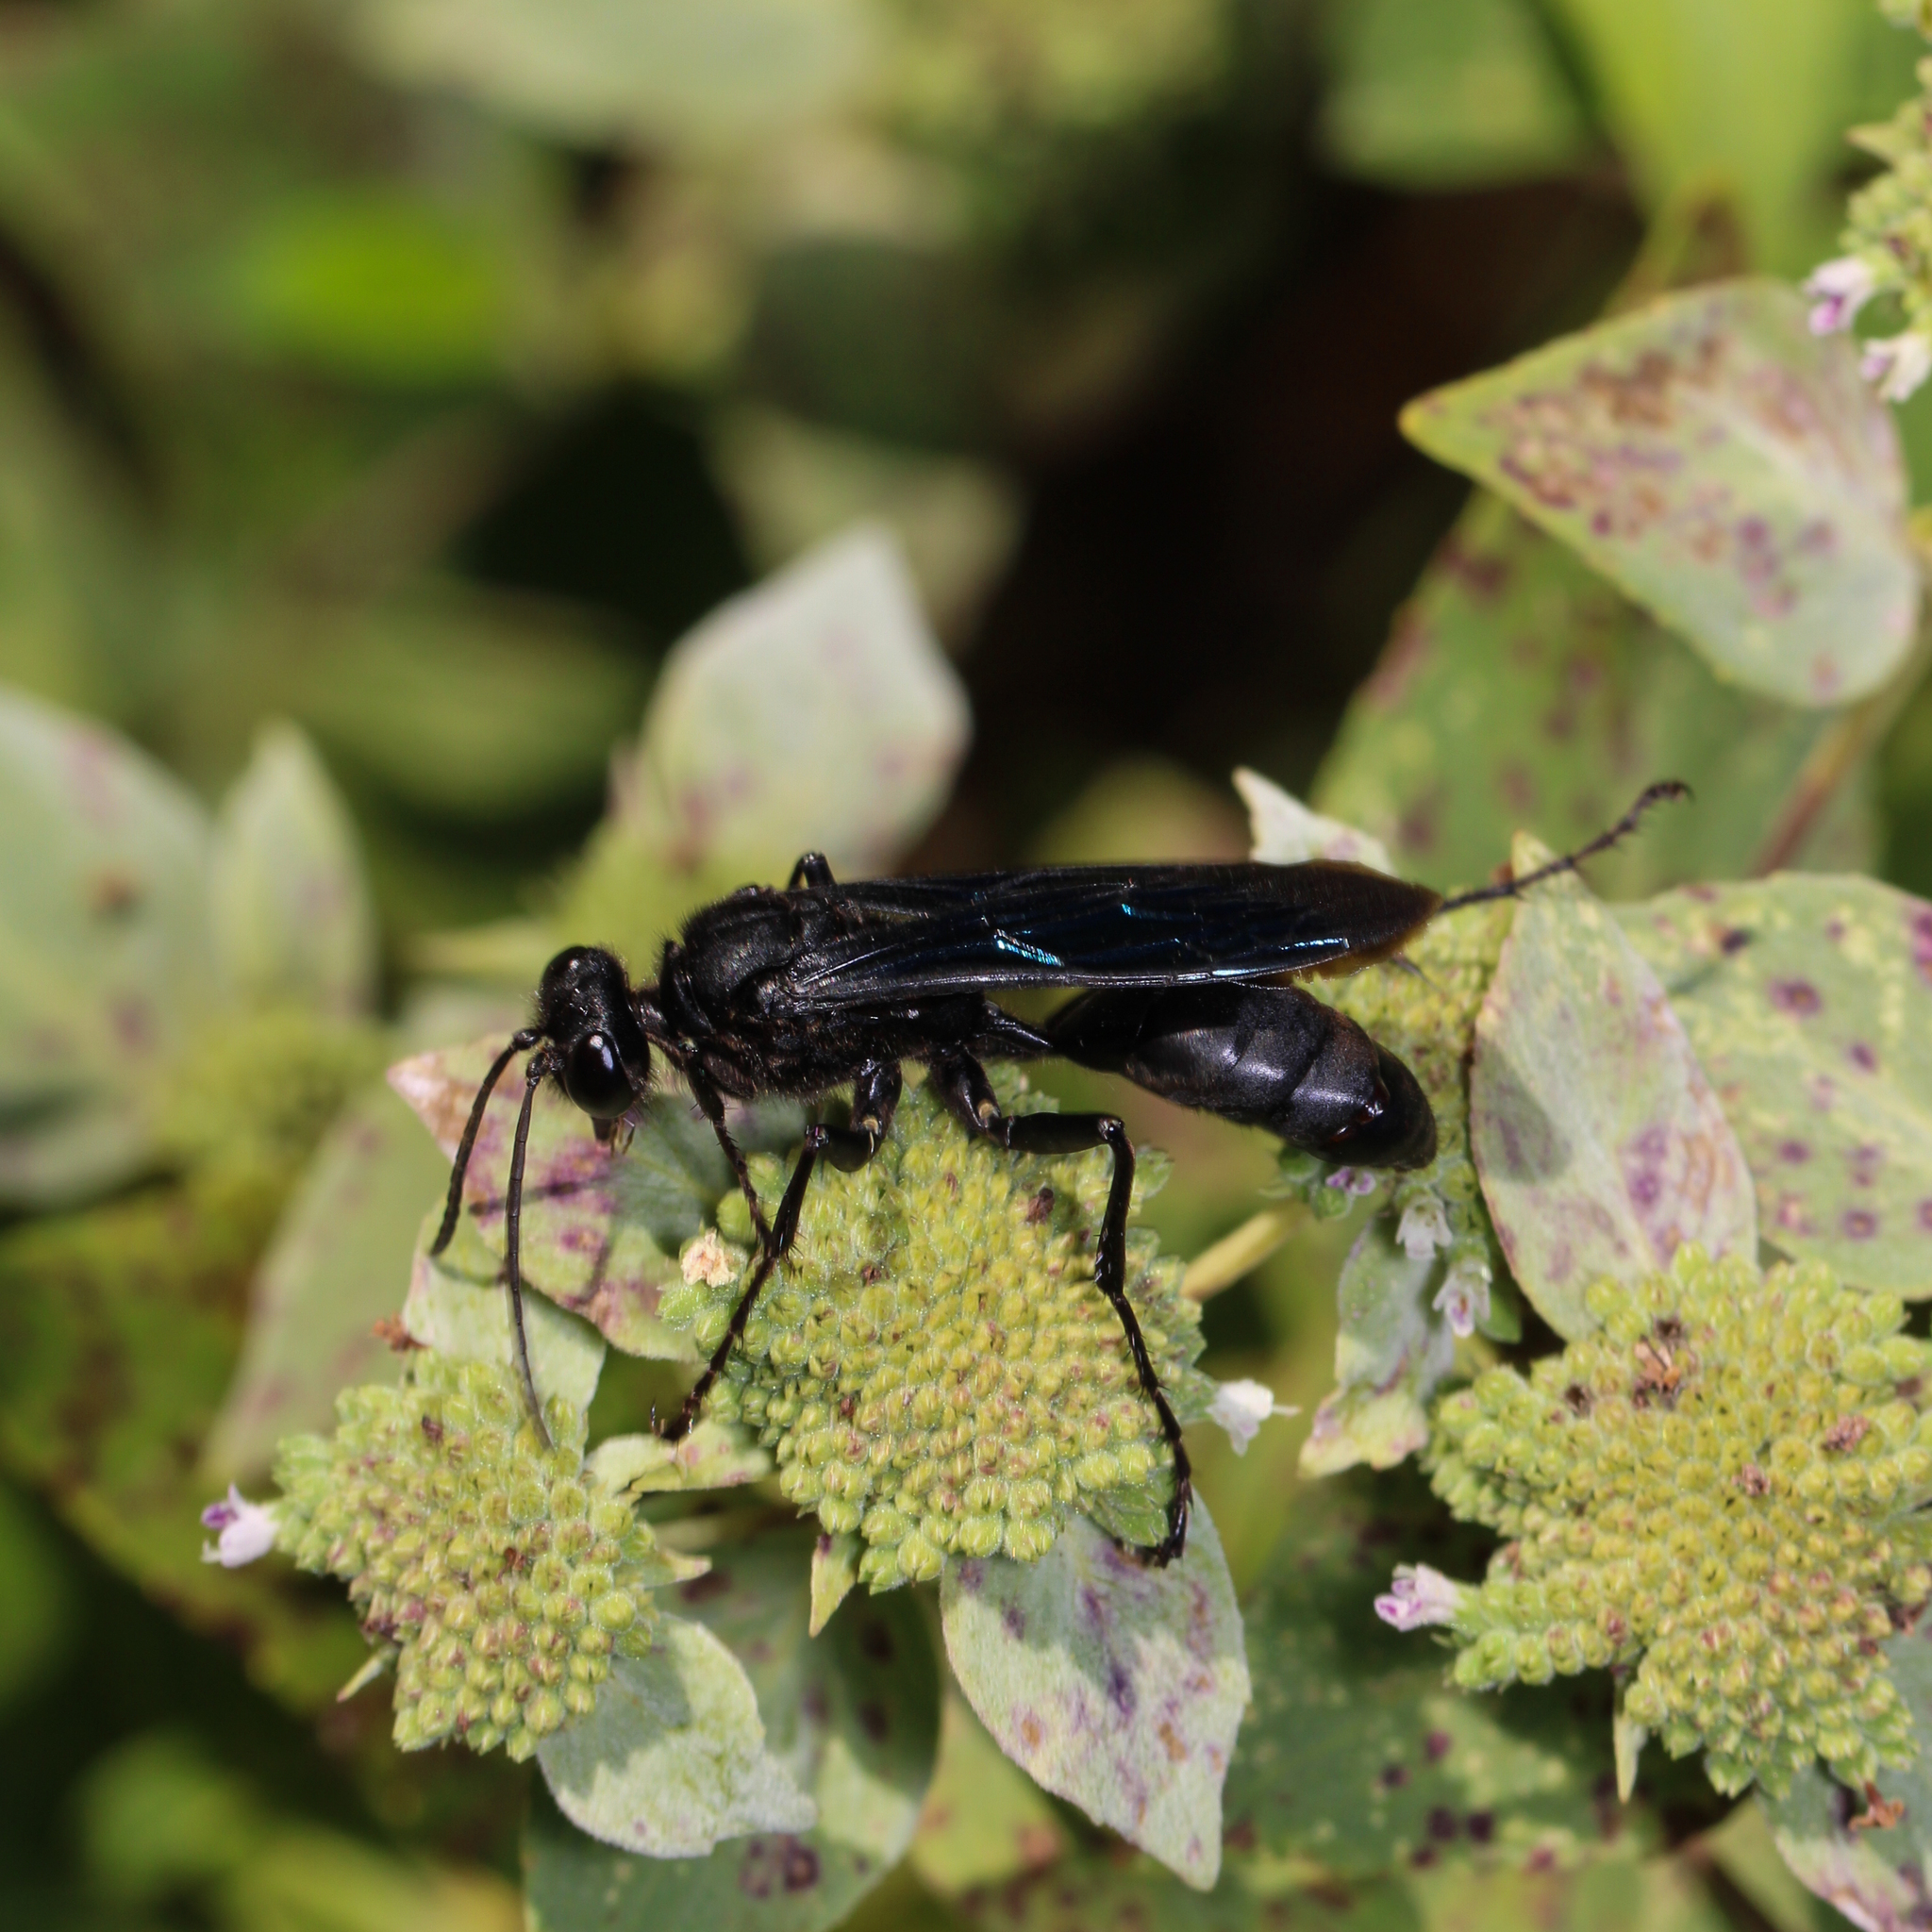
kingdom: Animalia
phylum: Arthropoda
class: Insecta
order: Hymenoptera
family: Sphecidae
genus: Sphex
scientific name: Sphex pensylvanicus
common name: Great black digger wasp
